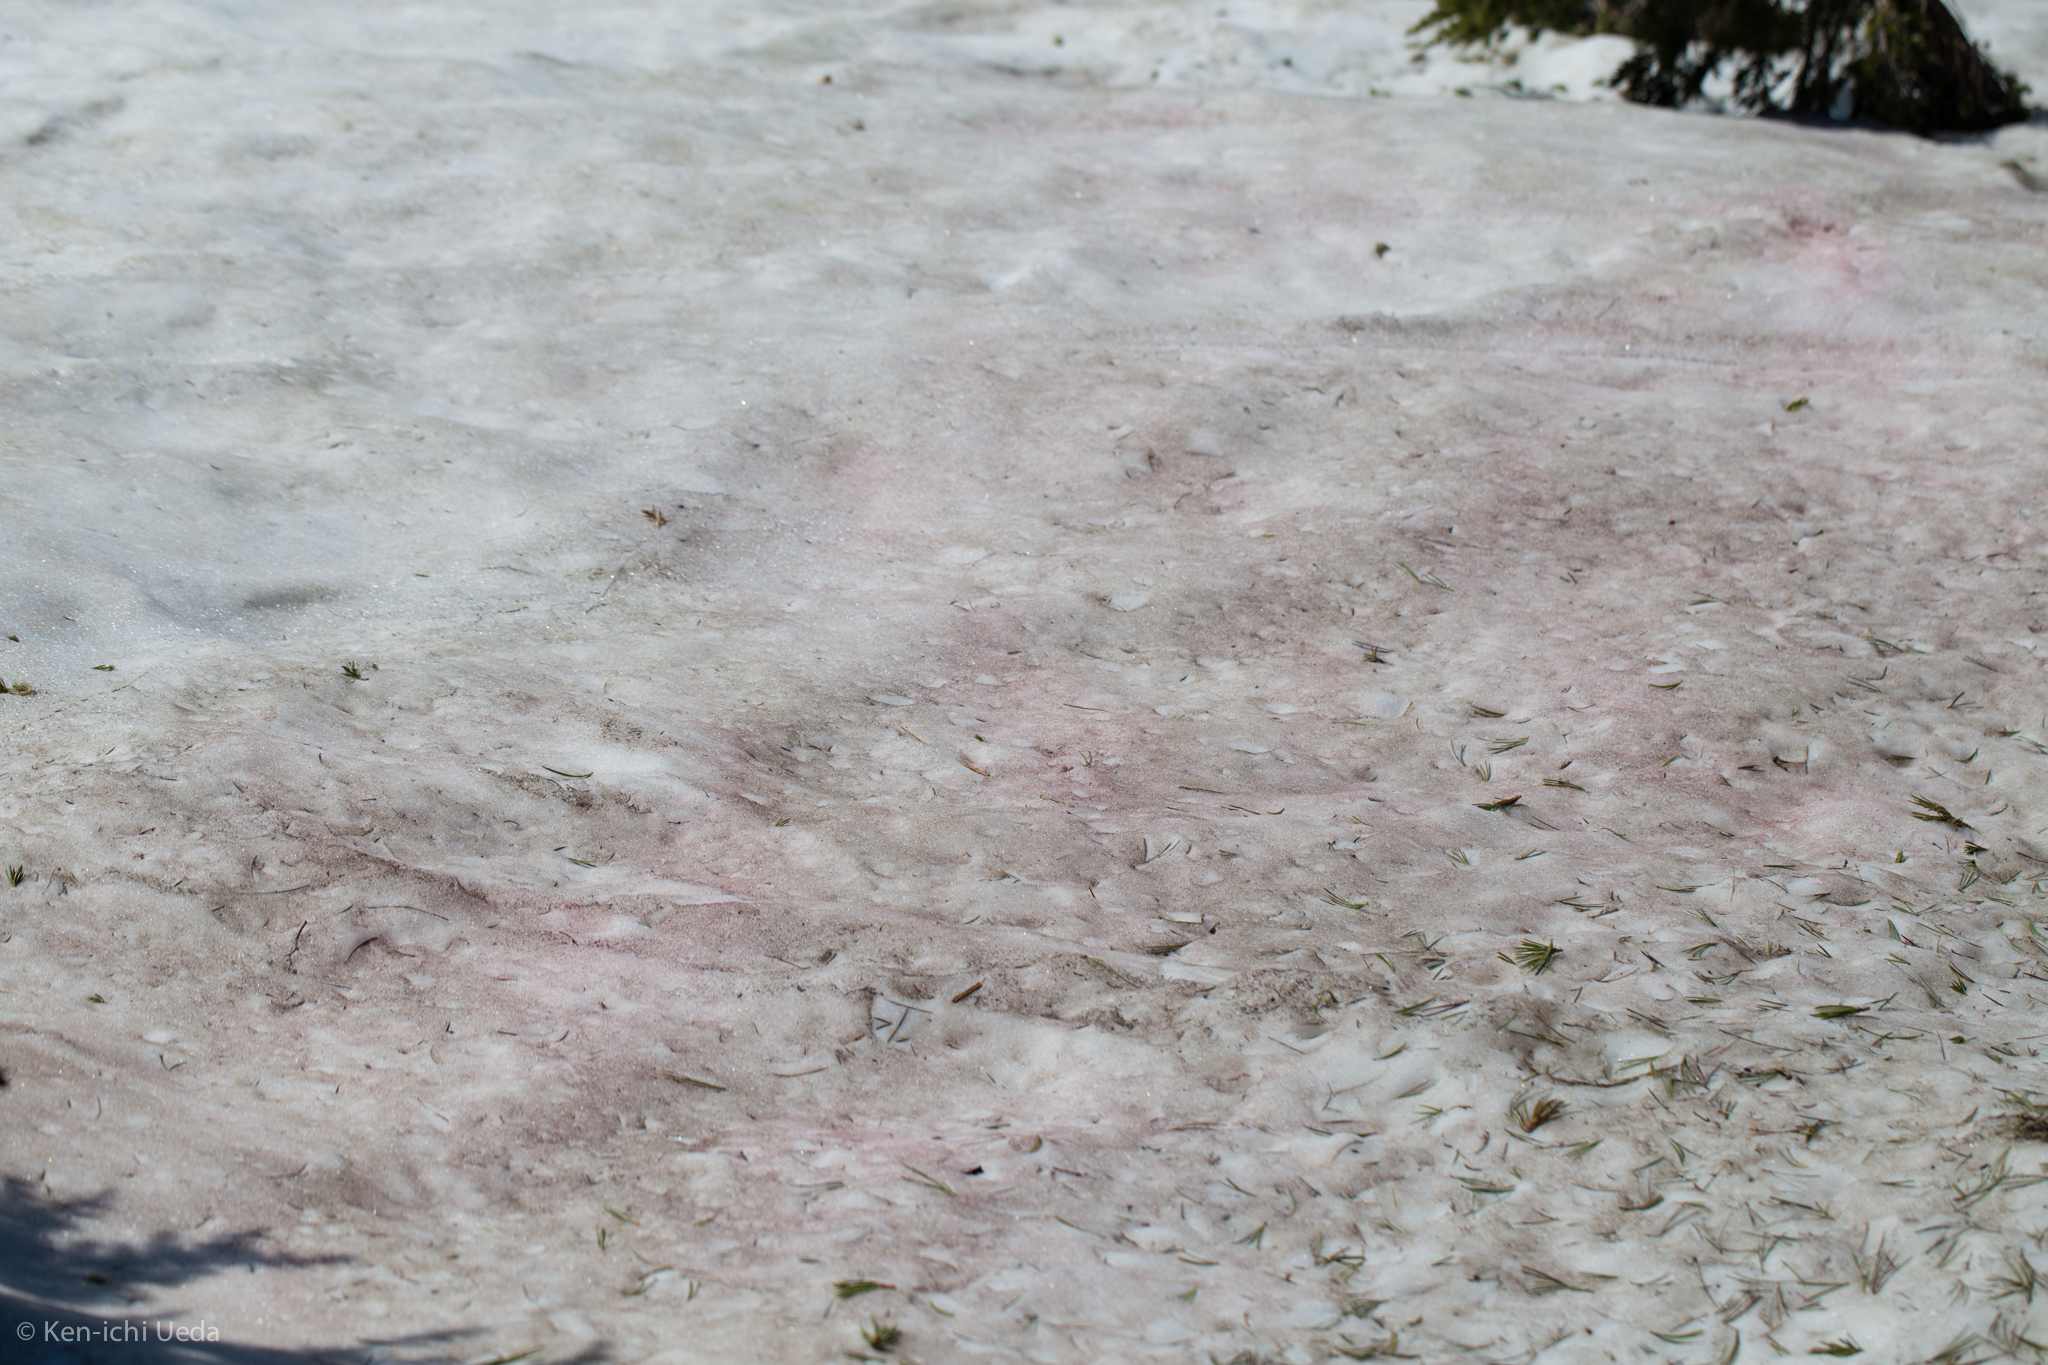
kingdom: Plantae
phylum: Chlorophyta
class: Chlorophyceae
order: Volvocales
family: Chlamydomonadaceae
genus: Chlamydomonas
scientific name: Chlamydomonas nivalis
